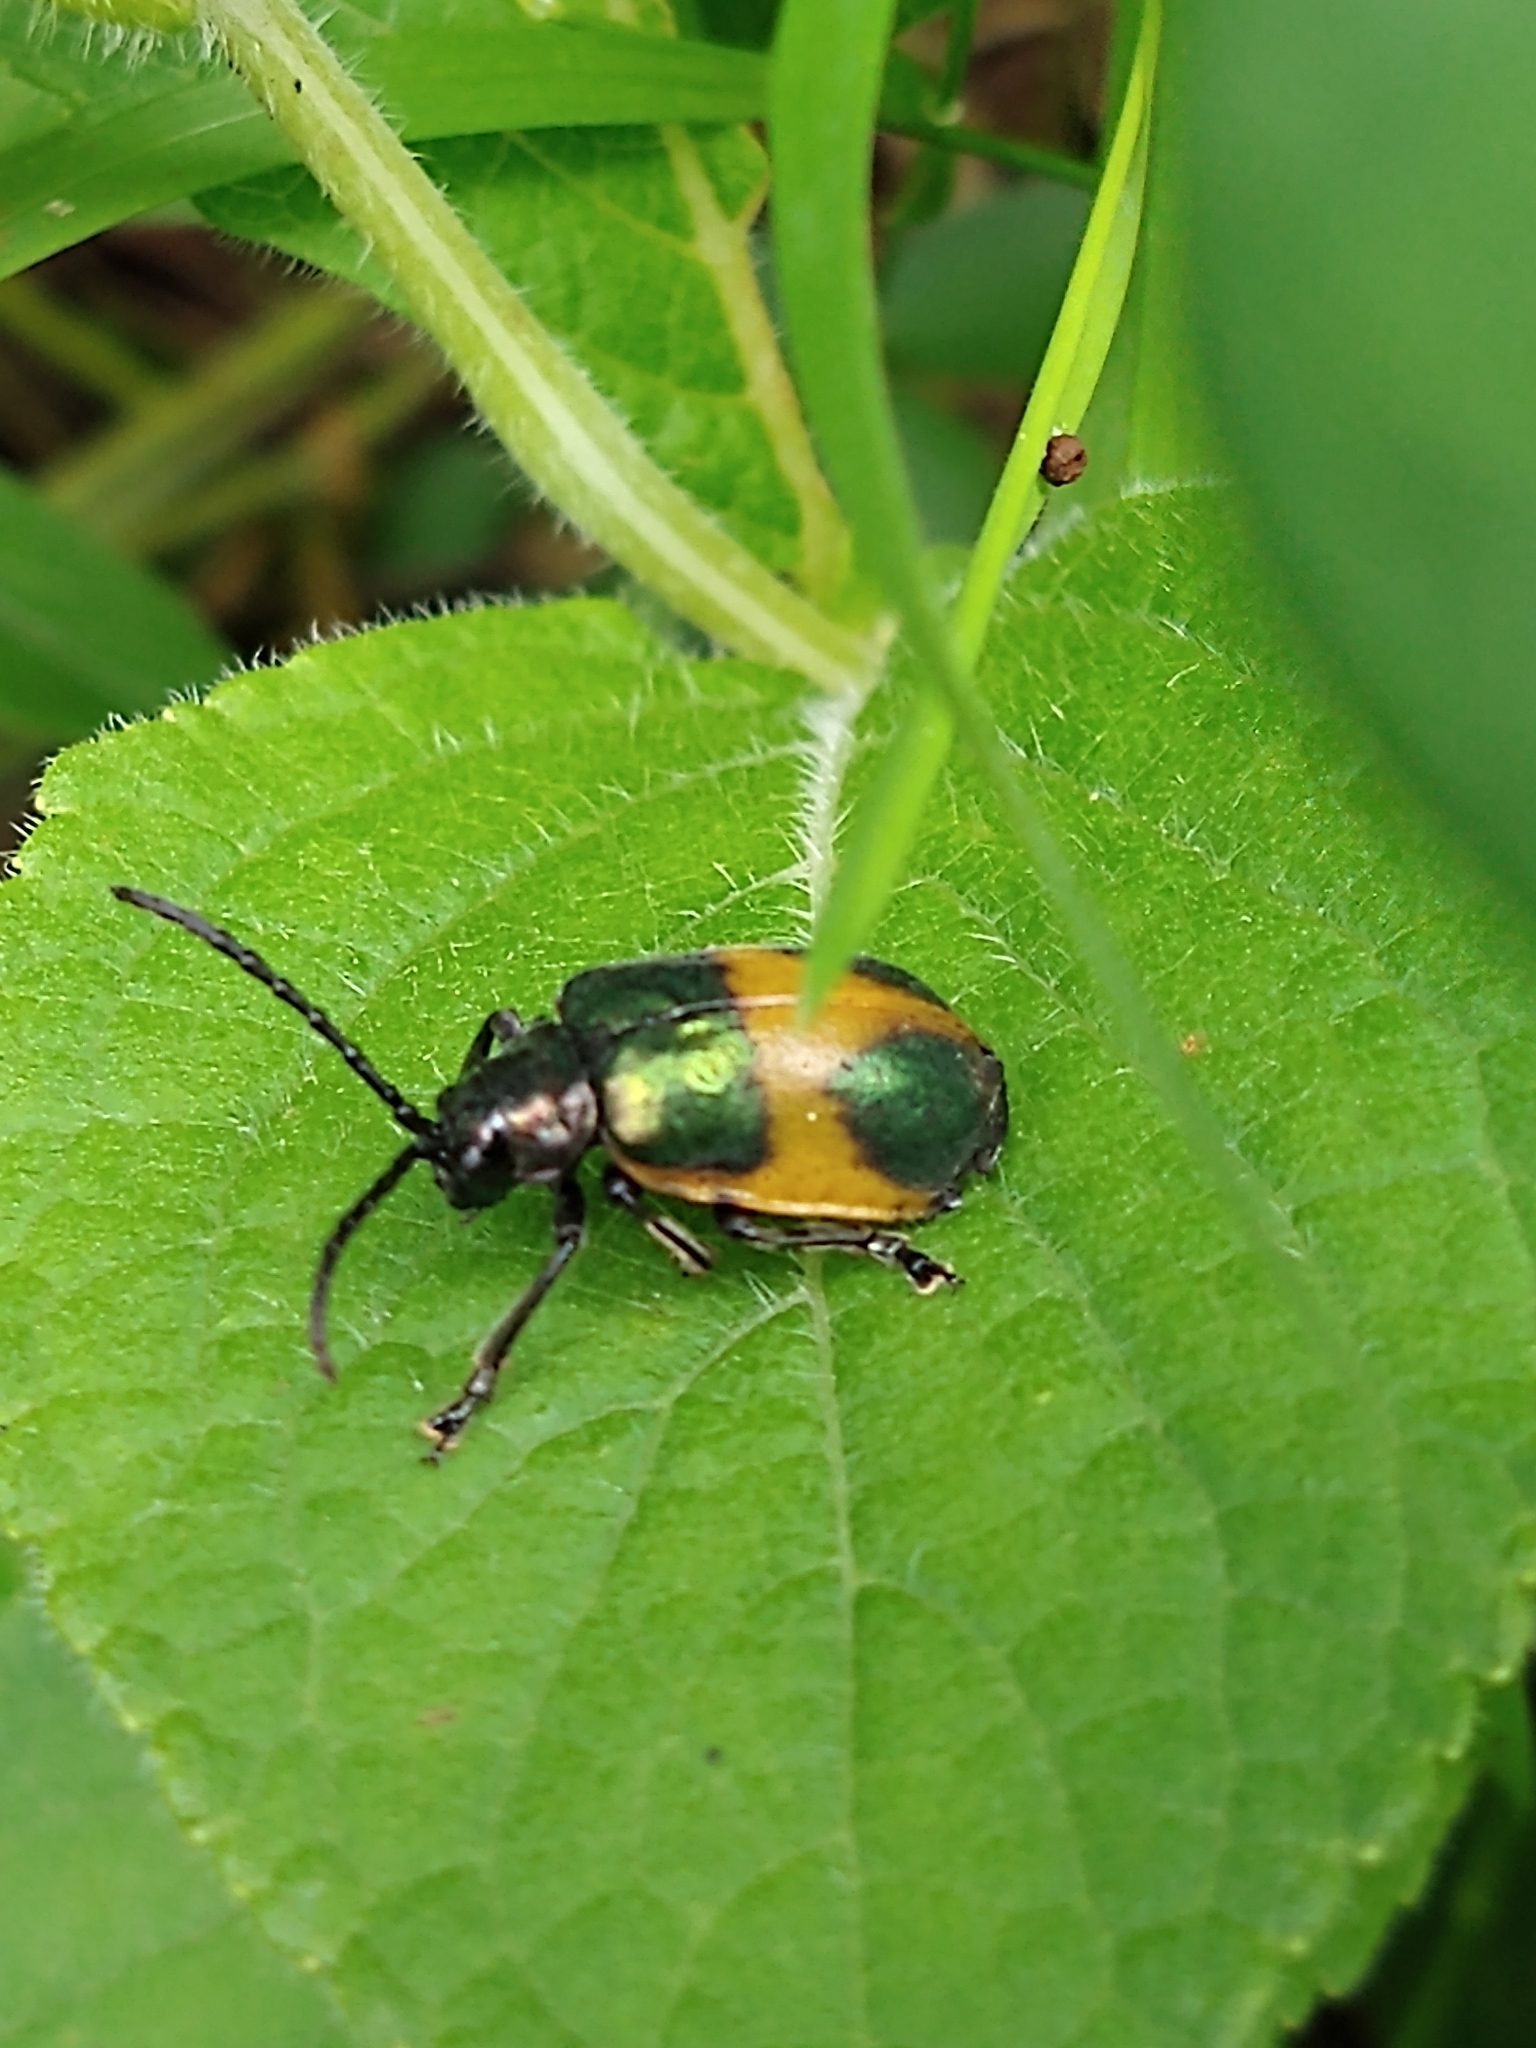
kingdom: Animalia
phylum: Arthropoda
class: Insecta
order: Coleoptera
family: Chrysomelidae
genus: Monocesta
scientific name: Monocesta
